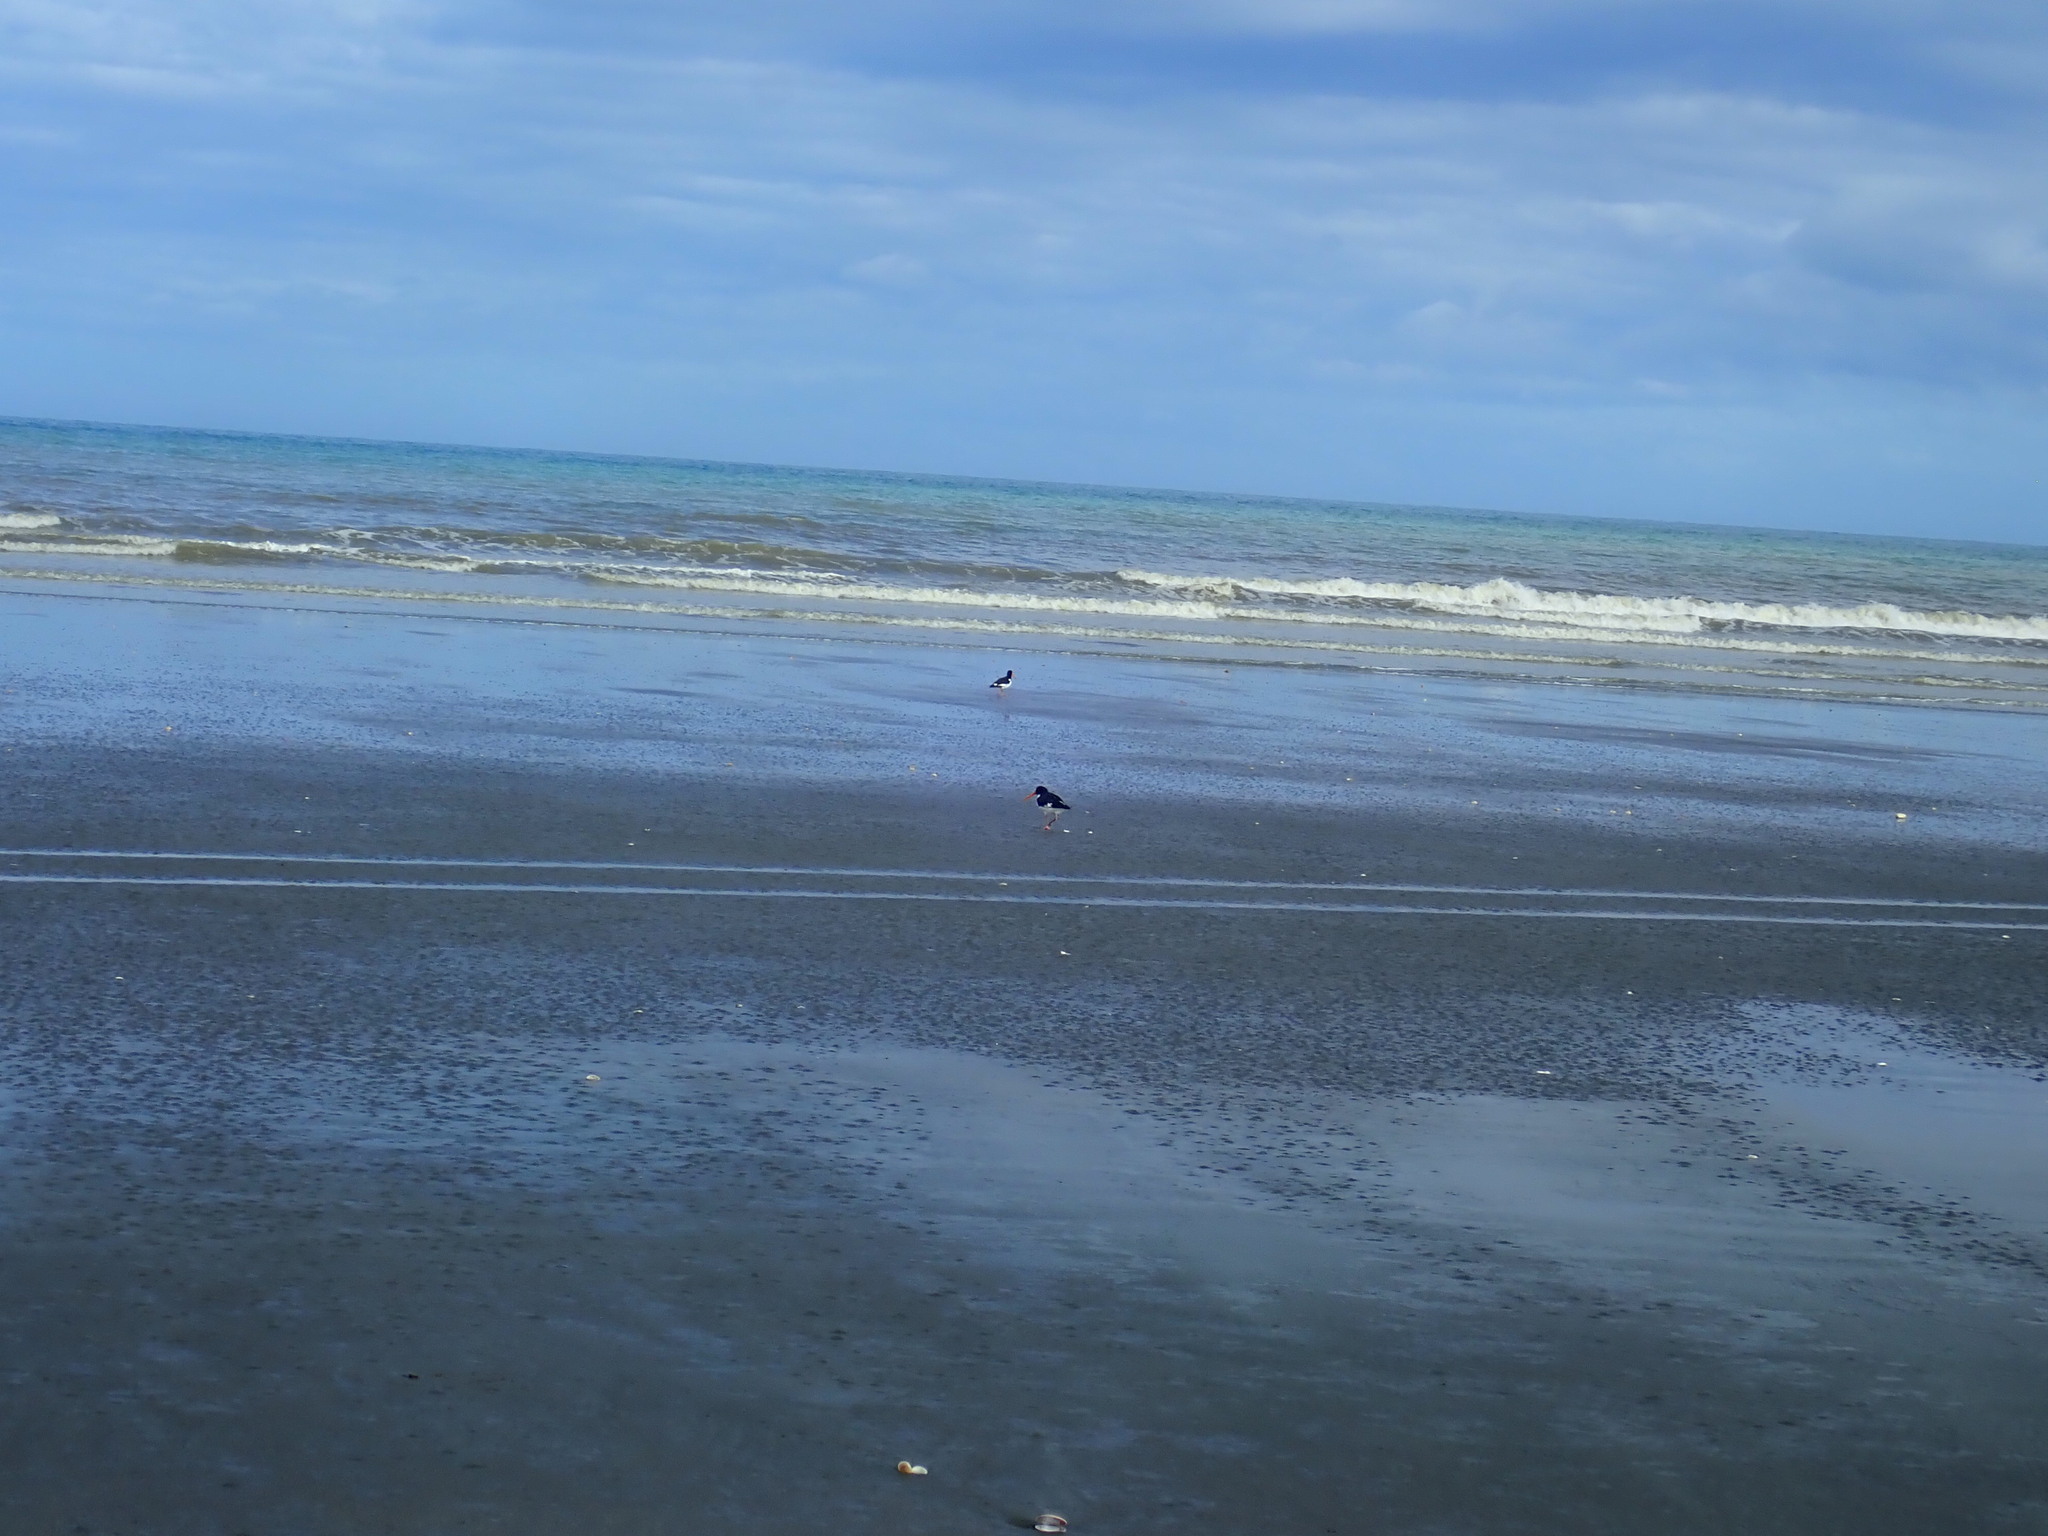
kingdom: Animalia
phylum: Chordata
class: Aves
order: Charadriiformes
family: Haematopodidae
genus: Haematopus
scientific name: Haematopus finschi
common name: South island oystercatcher
